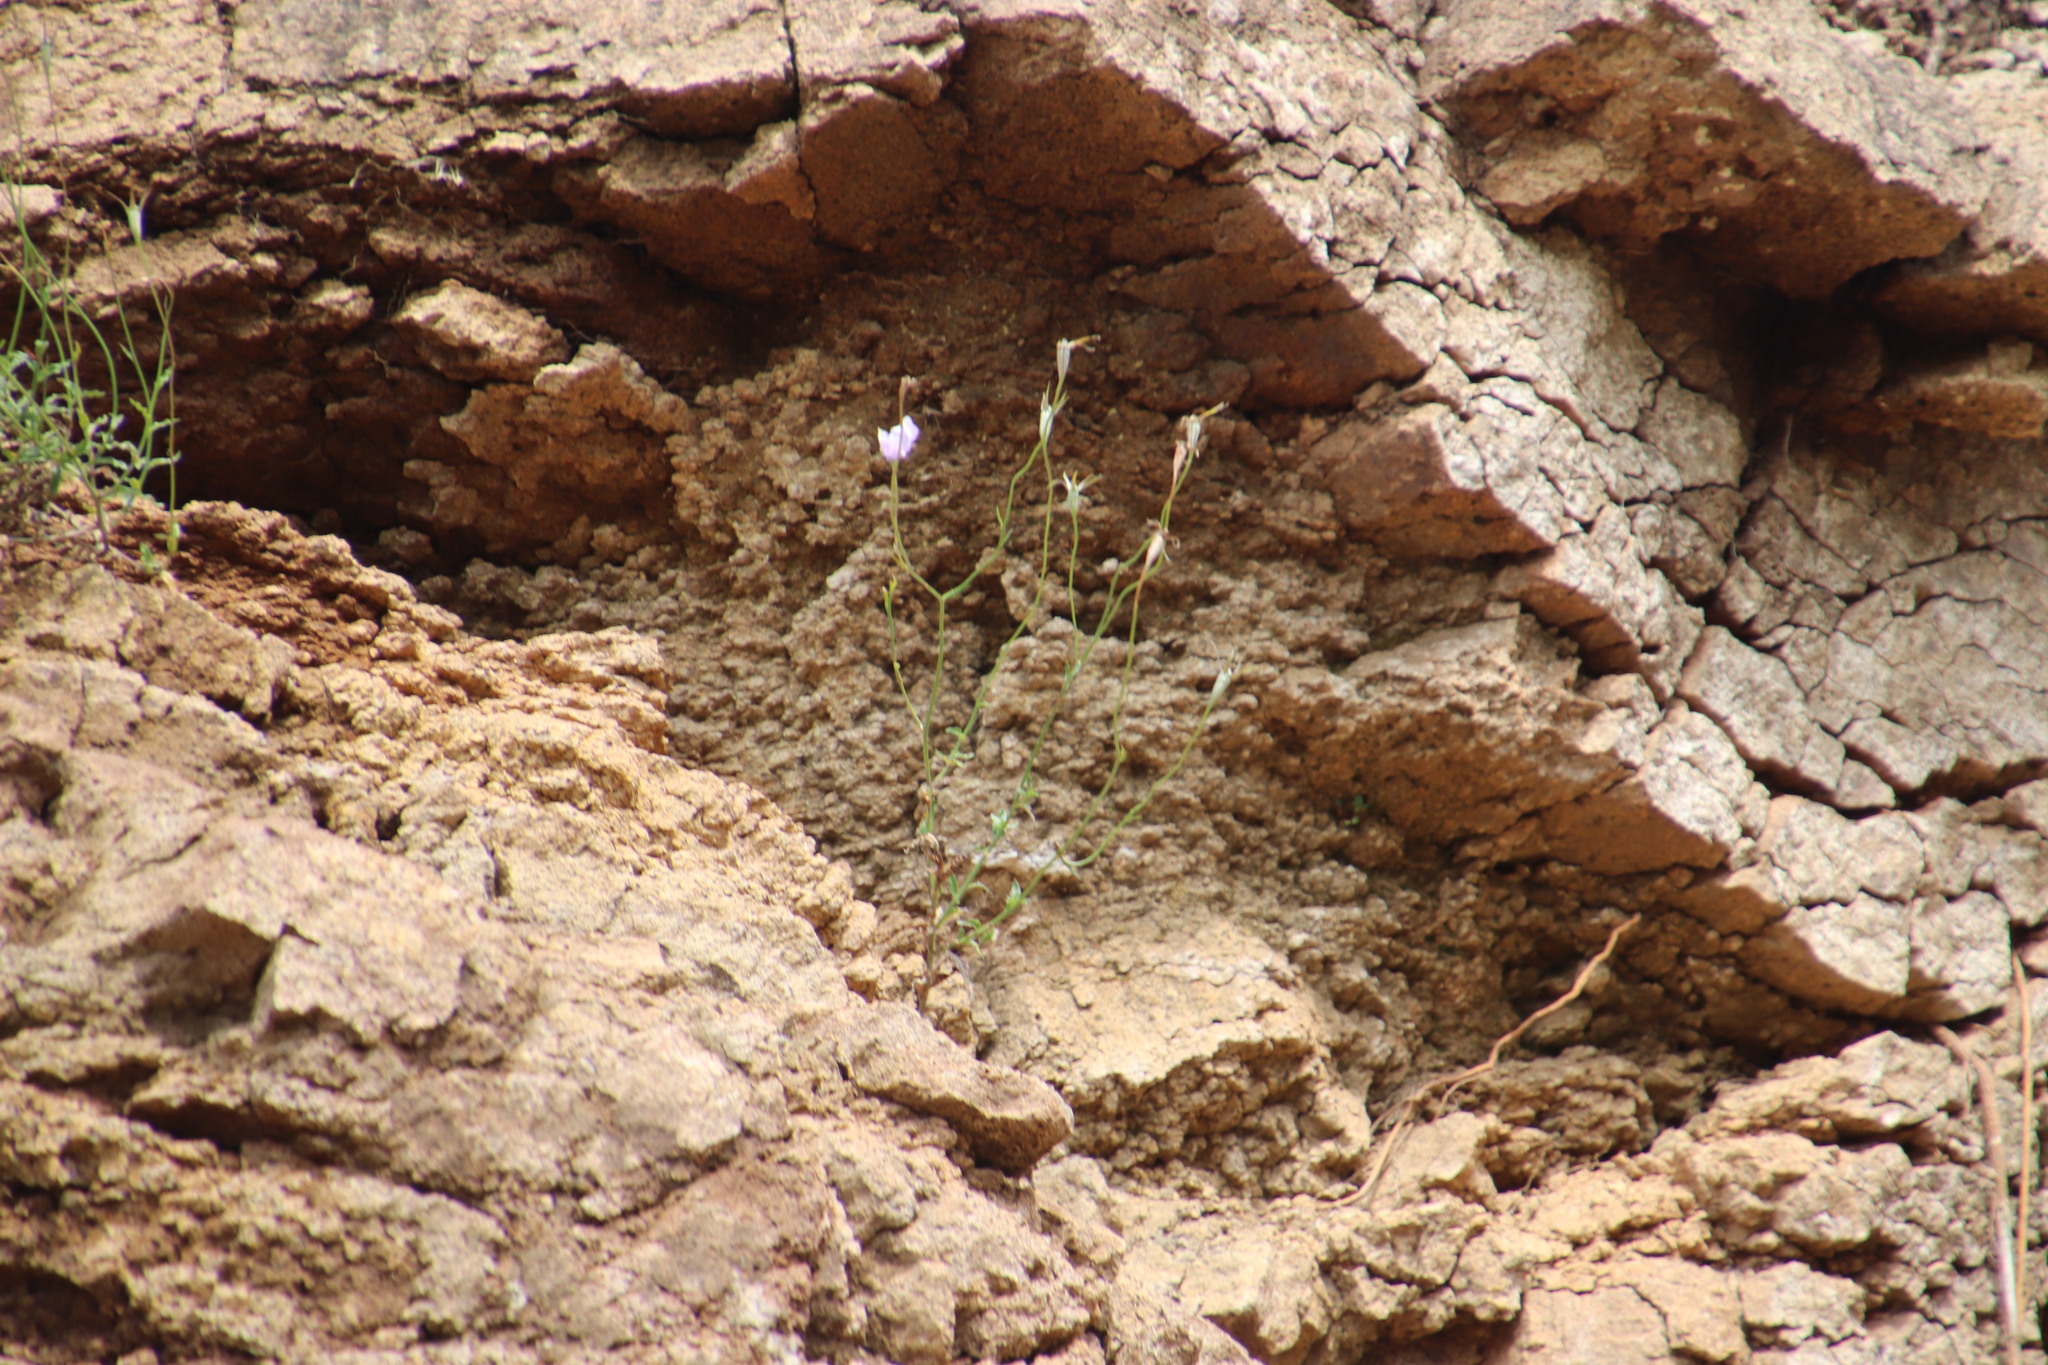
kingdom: Plantae
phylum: Tracheophyta
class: Magnoliopsida
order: Asterales
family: Campanulaceae
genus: Wahlenbergia
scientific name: Wahlenbergia cuspidata
